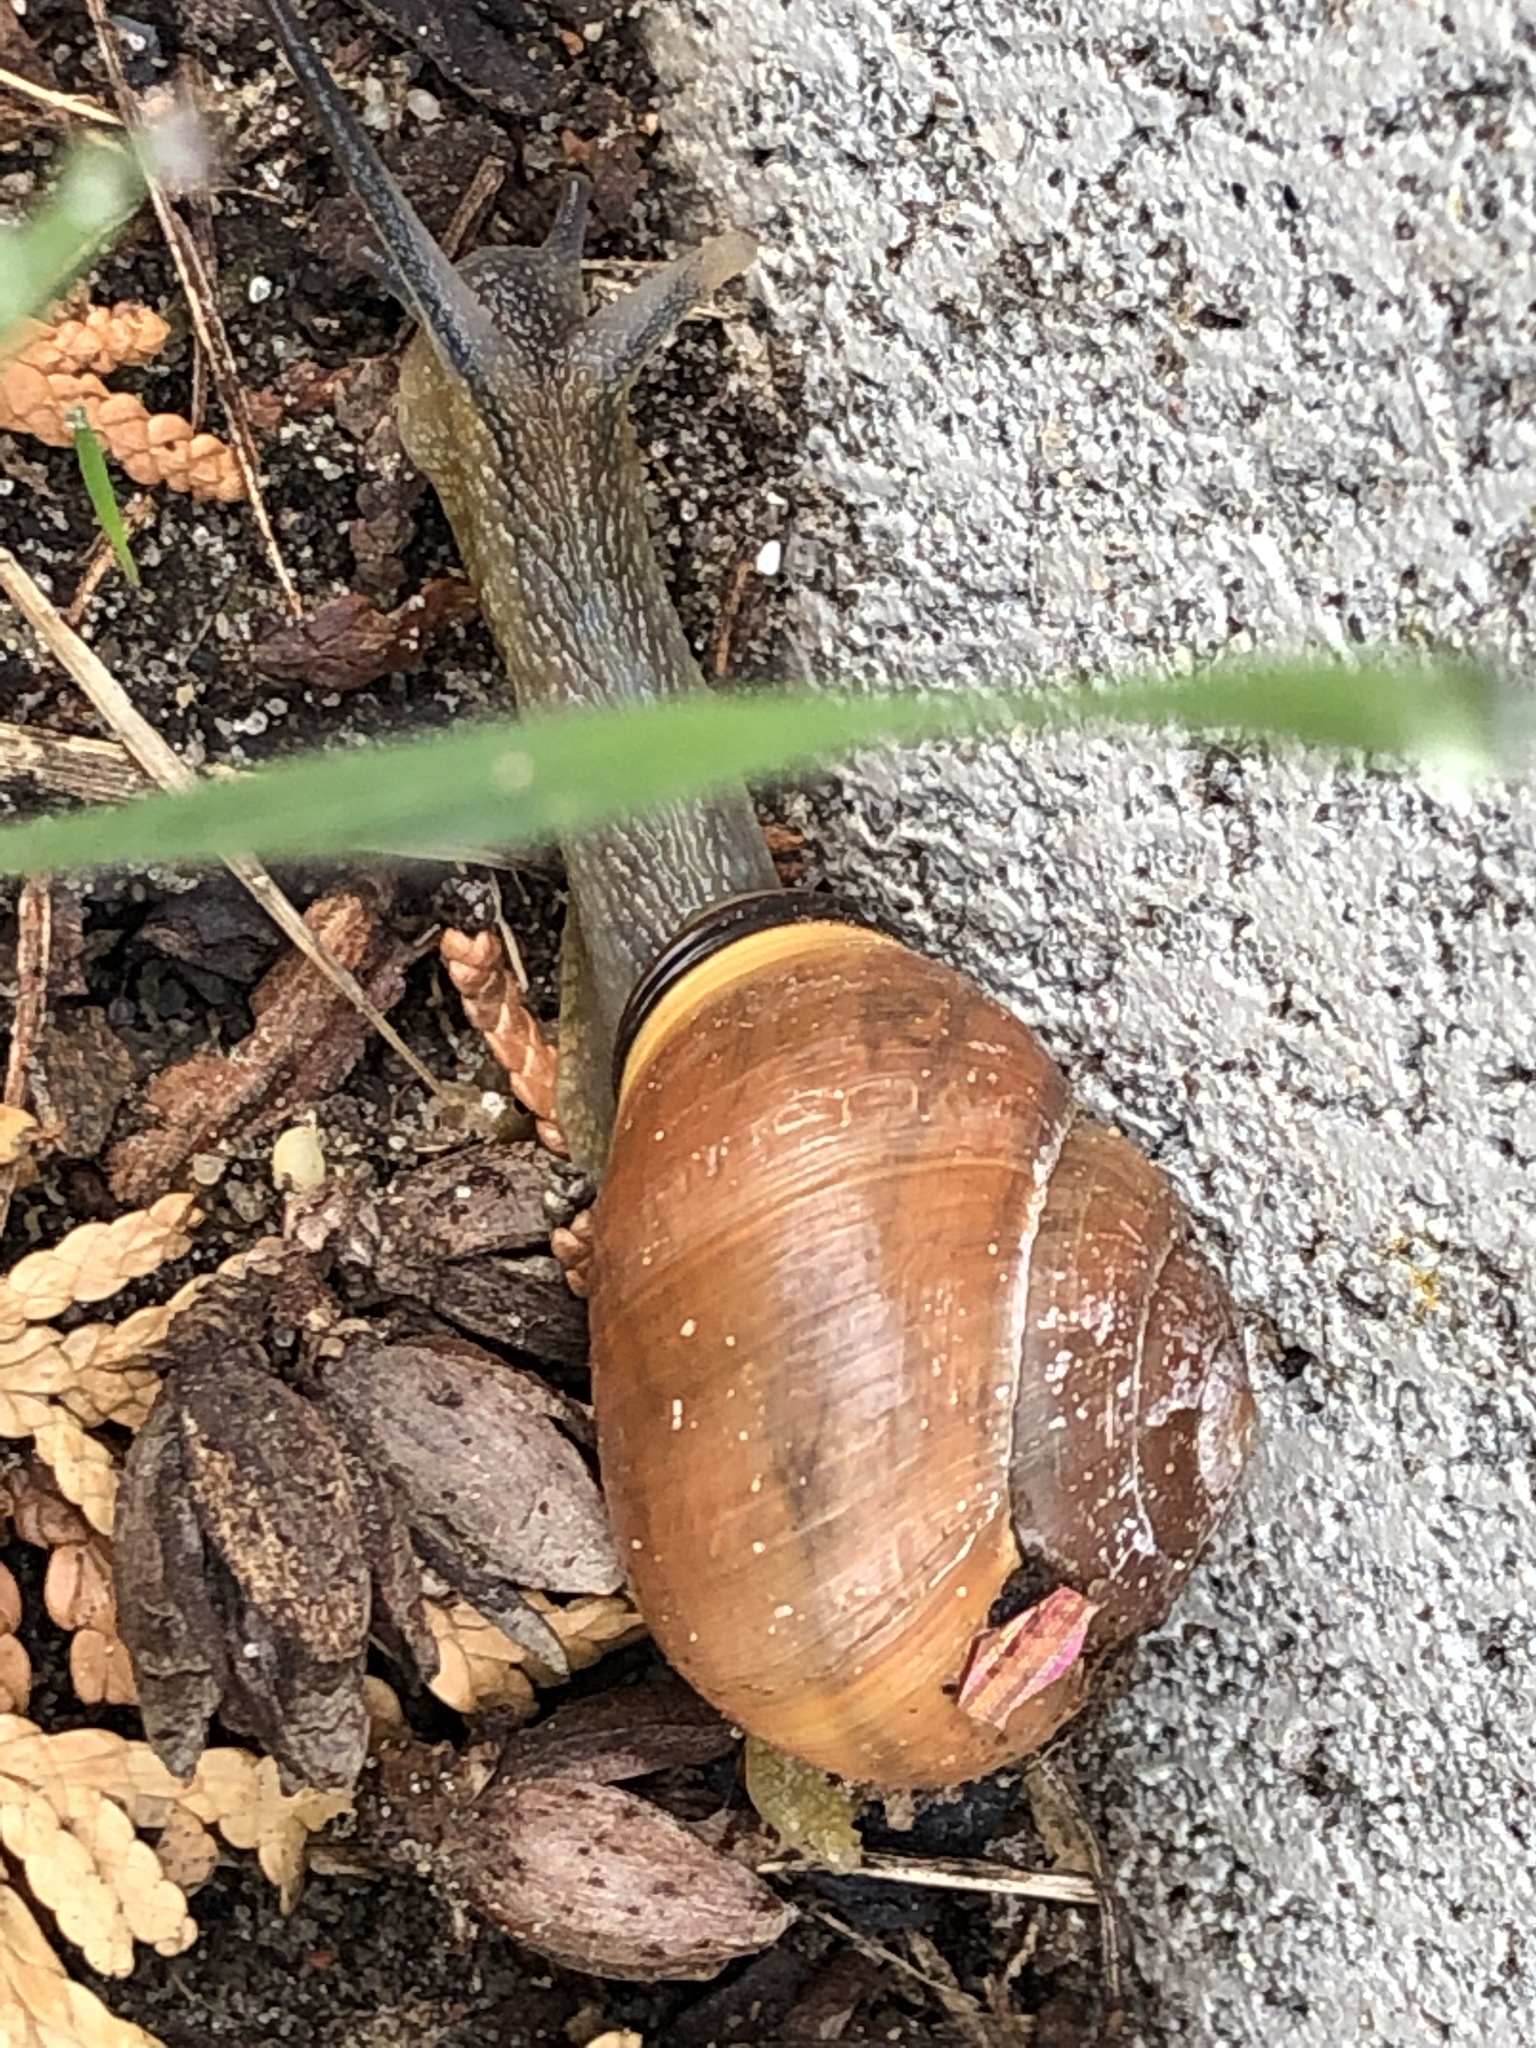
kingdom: Animalia
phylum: Mollusca
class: Gastropoda
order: Stylommatophora
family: Helicidae
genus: Cepaea
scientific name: Cepaea nemoralis
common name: Grovesnail
